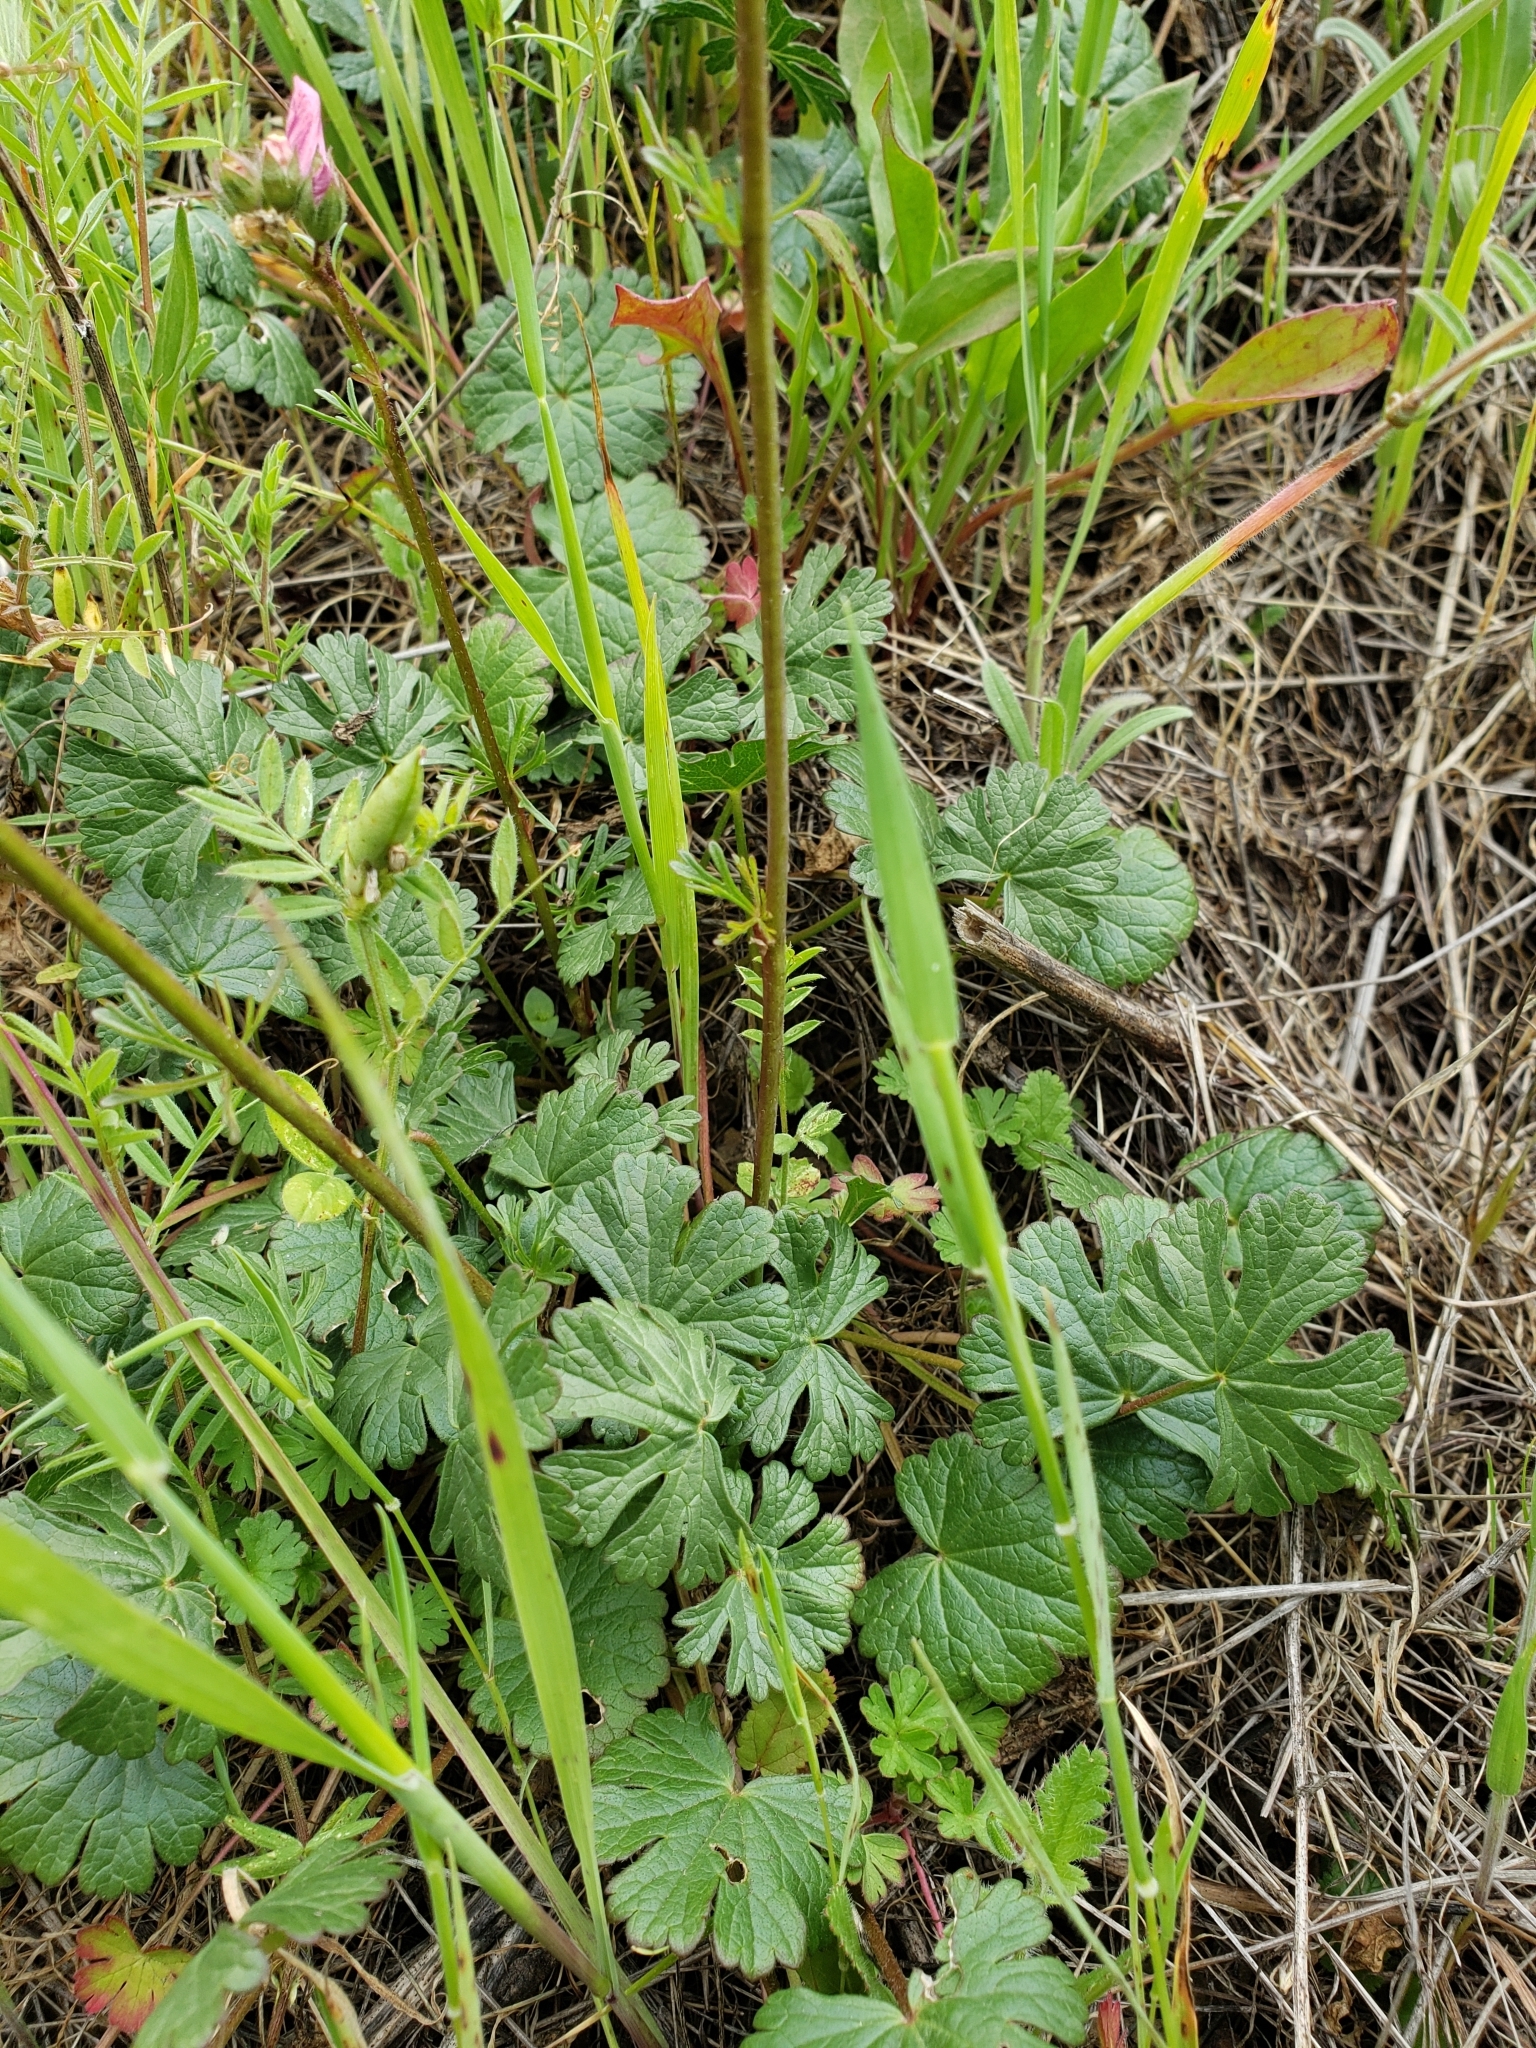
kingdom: Plantae
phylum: Tracheophyta
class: Magnoliopsida
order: Malvales
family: Malvaceae
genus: Sidalcea
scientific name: Sidalcea malviflora
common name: Greek mallow
